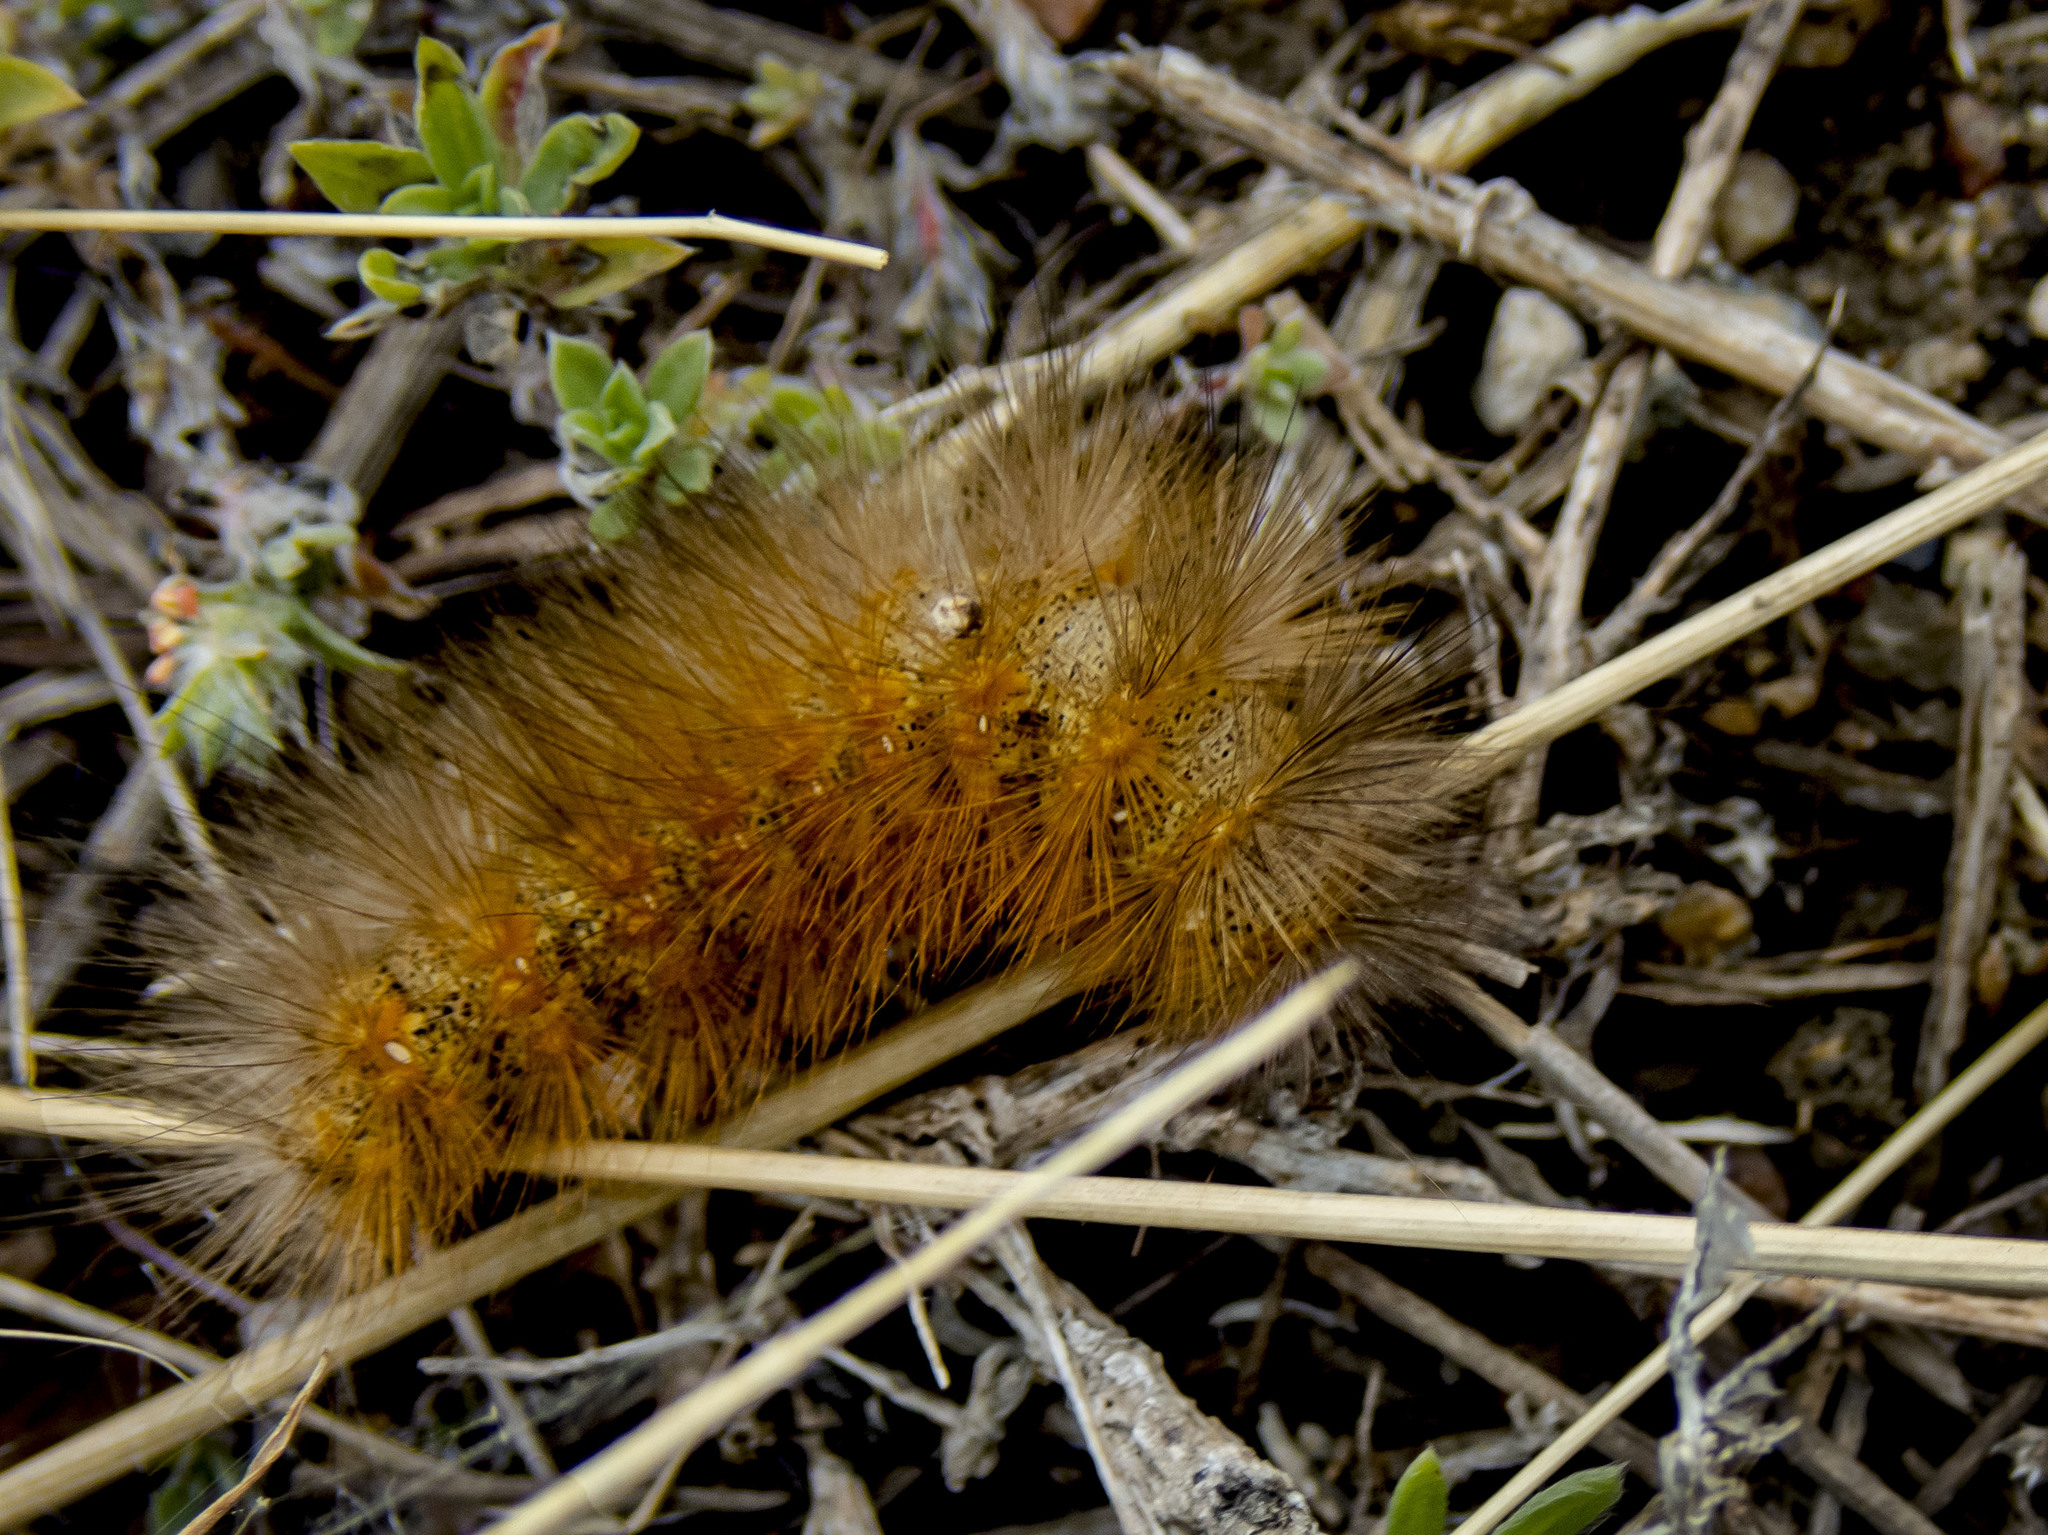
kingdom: Animalia
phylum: Arthropoda
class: Insecta
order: Lepidoptera
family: Erebidae
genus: Estigmene
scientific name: Estigmene acrea
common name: Salt marsh moth
